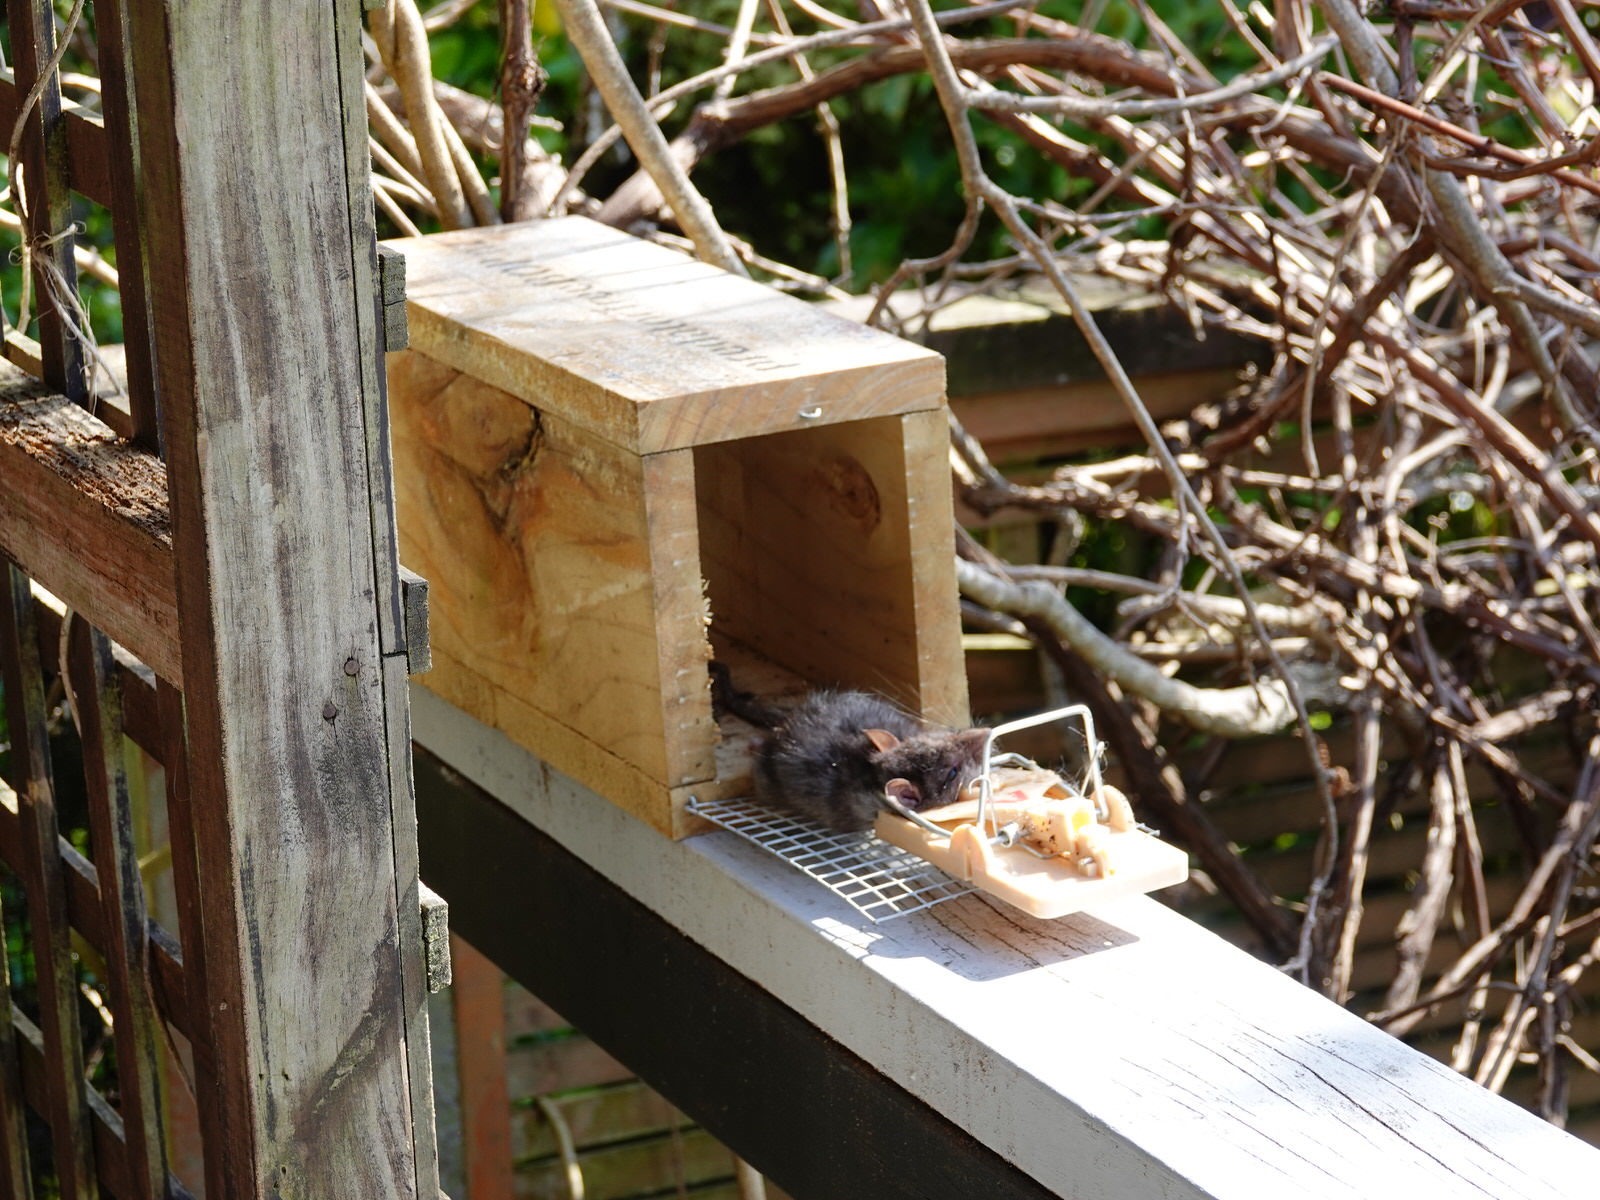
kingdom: Animalia
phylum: Chordata
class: Mammalia
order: Rodentia
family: Muridae
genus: Rattus
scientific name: Rattus rattus
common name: Black rat
